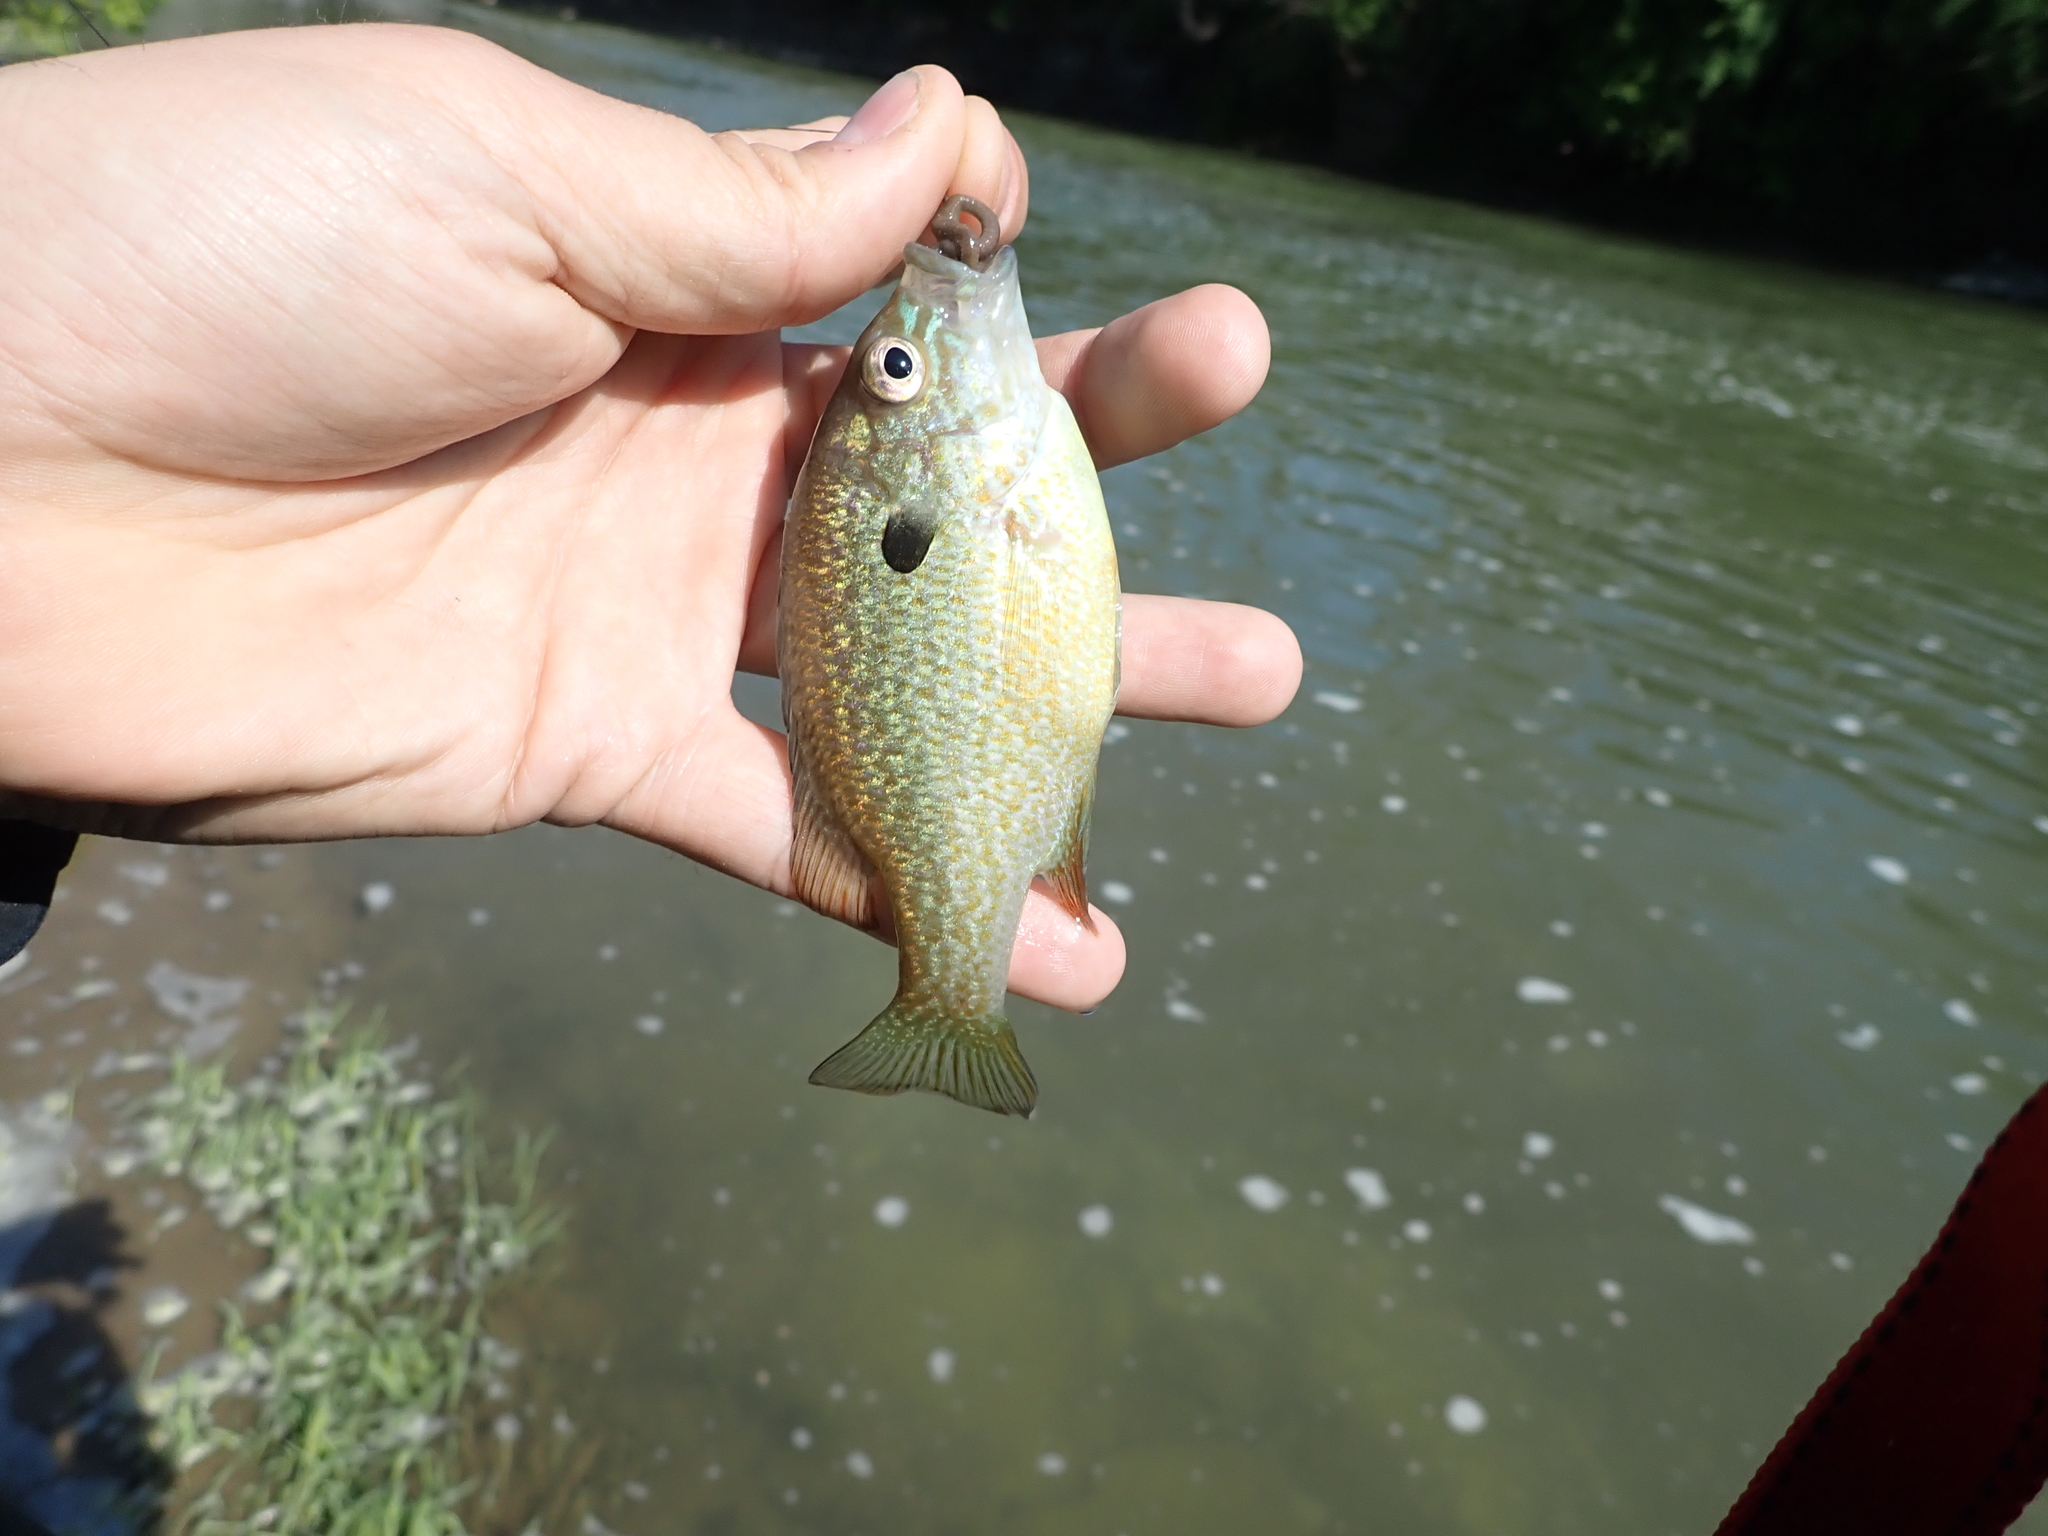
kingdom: Animalia
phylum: Chordata
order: Perciformes
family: Centrarchidae
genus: Lepomis
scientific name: Lepomis megalotis
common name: Longear sunfish
